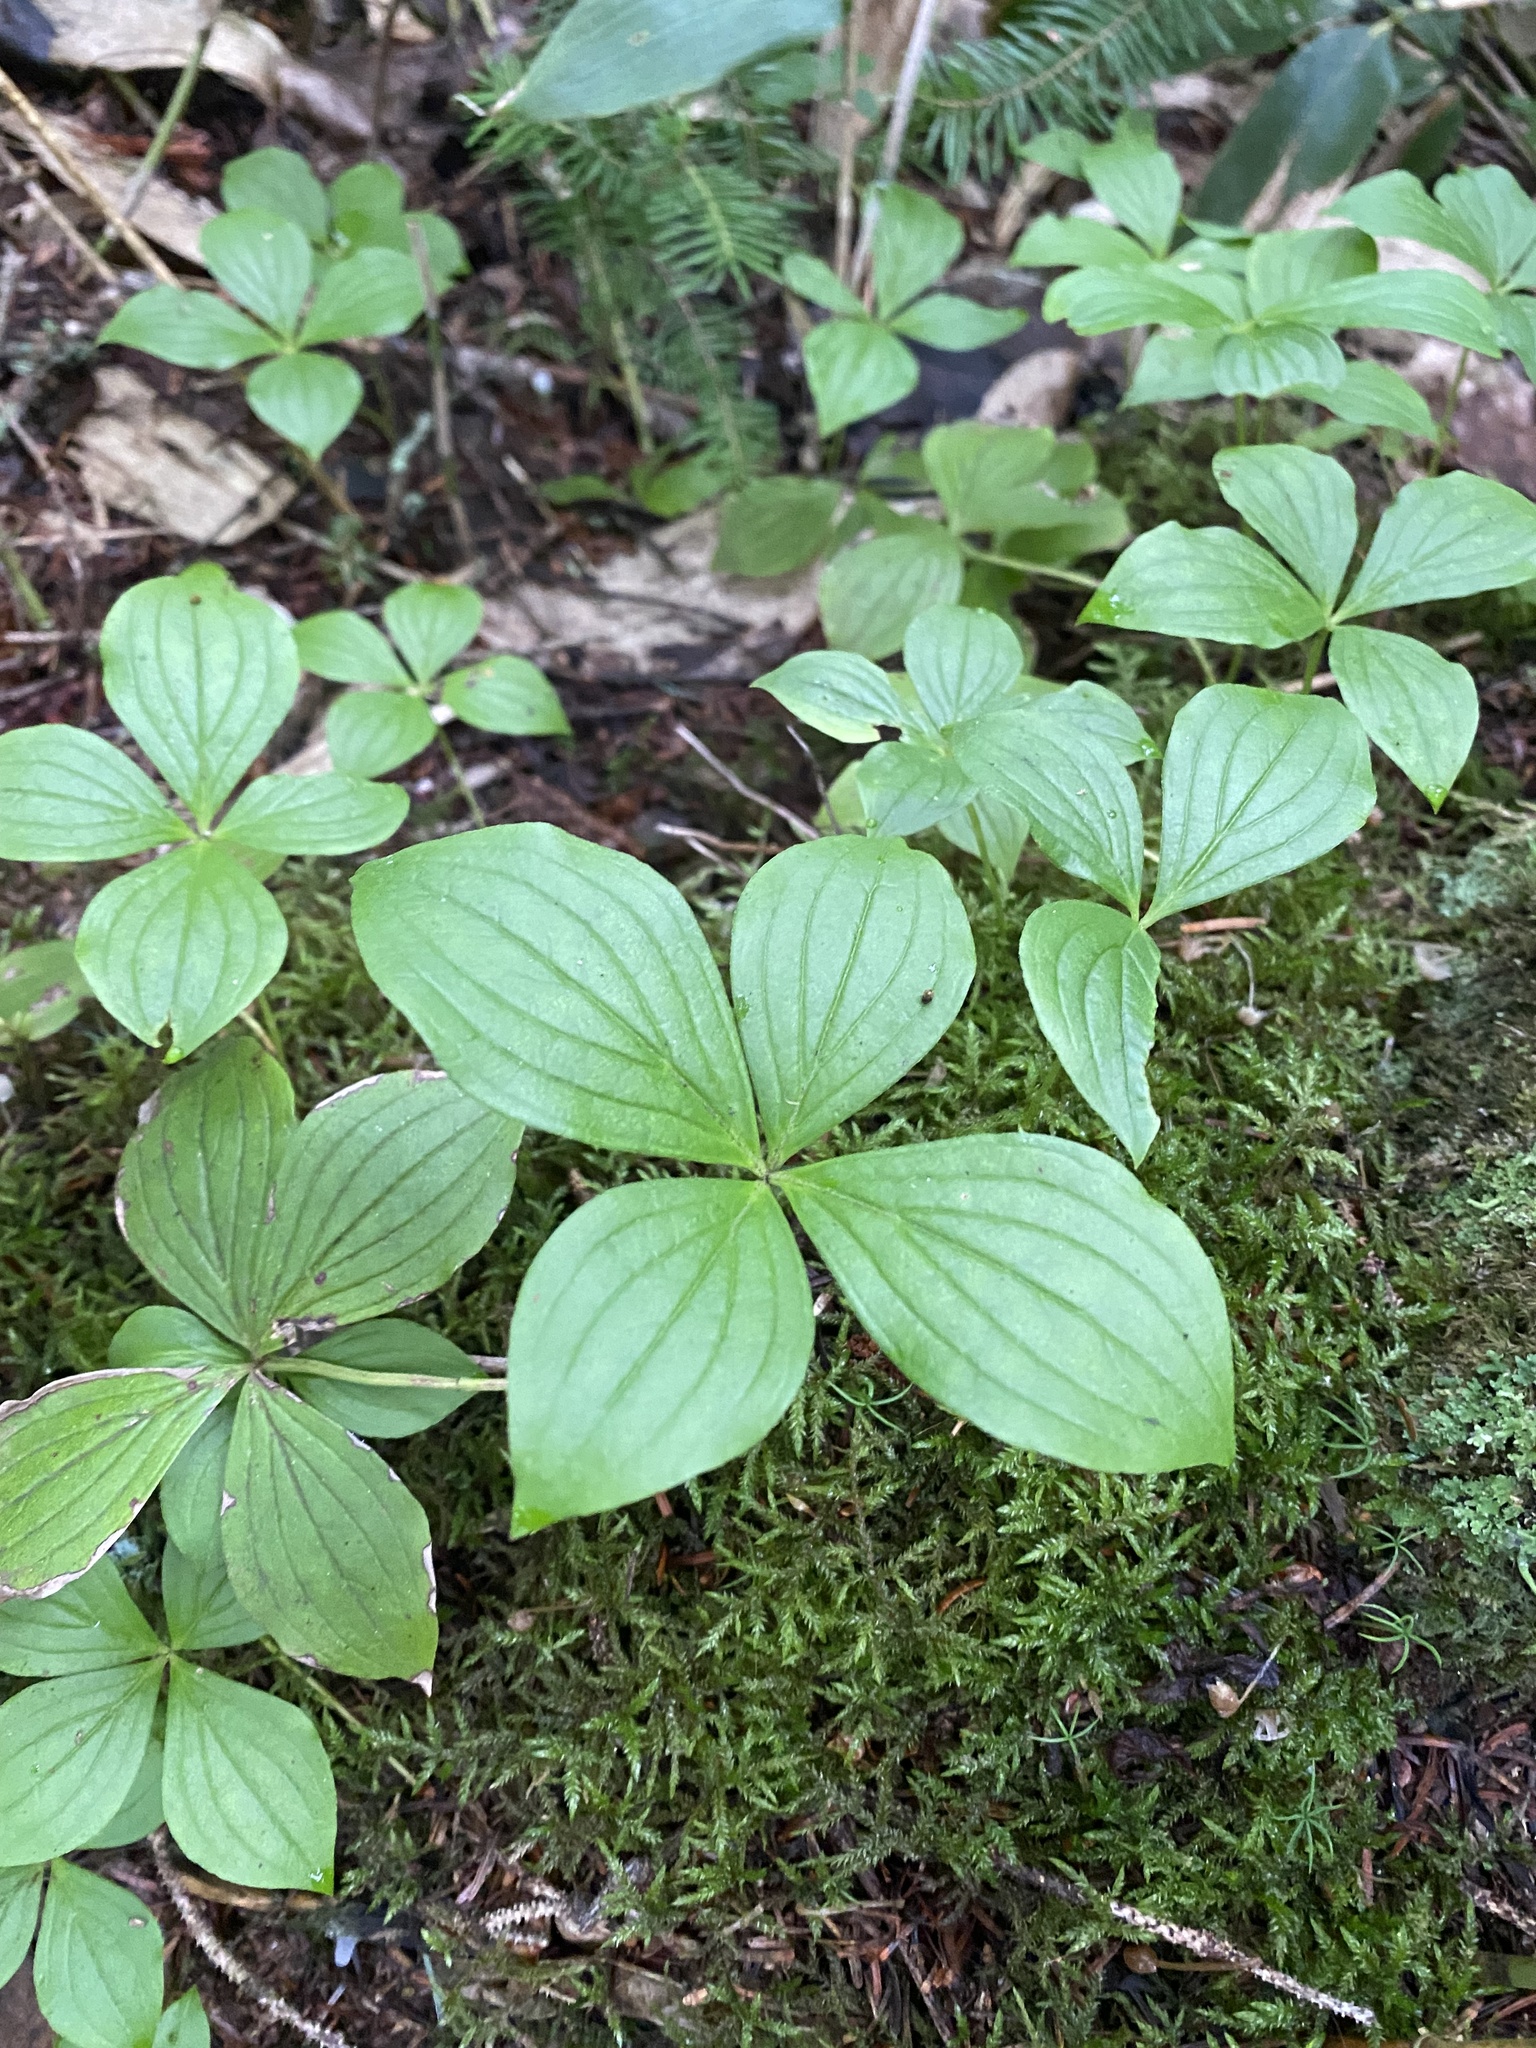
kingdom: Plantae
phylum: Tracheophyta
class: Magnoliopsida
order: Cornales
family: Cornaceae
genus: Cornus
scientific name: Cornus canadensis
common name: Creeping dogwood
